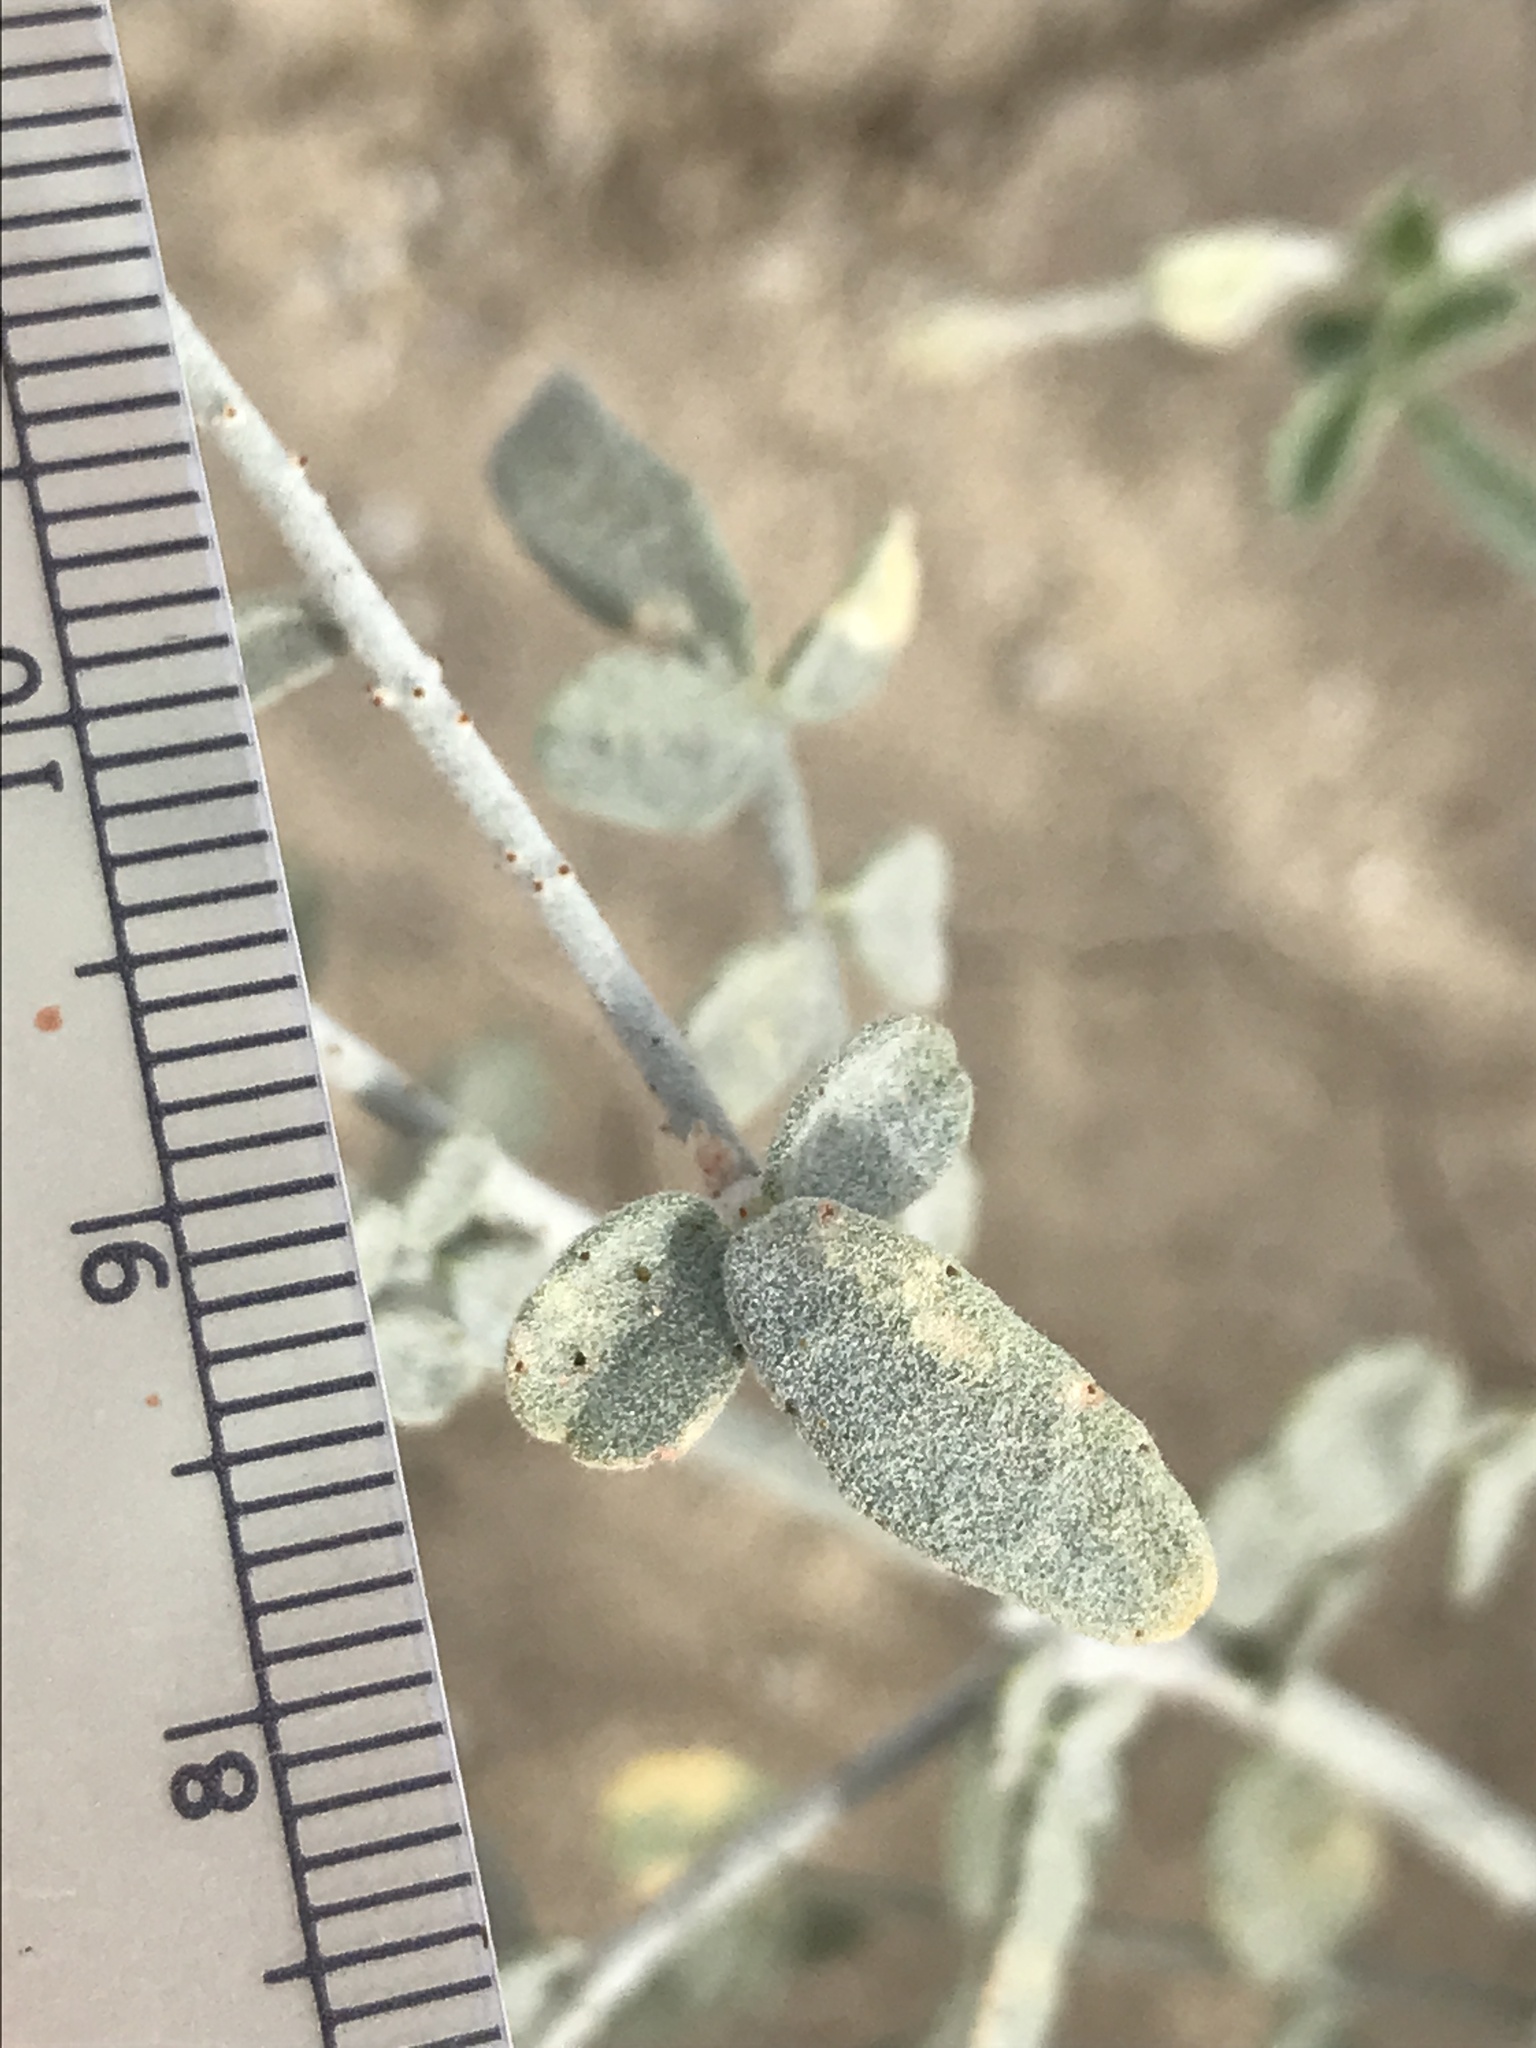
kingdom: Plantae
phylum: Tracheophyta
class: Magnoliopsida
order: Fabales
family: Fabaceae
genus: Psorothamnus
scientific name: Psorothamnus emoryi
